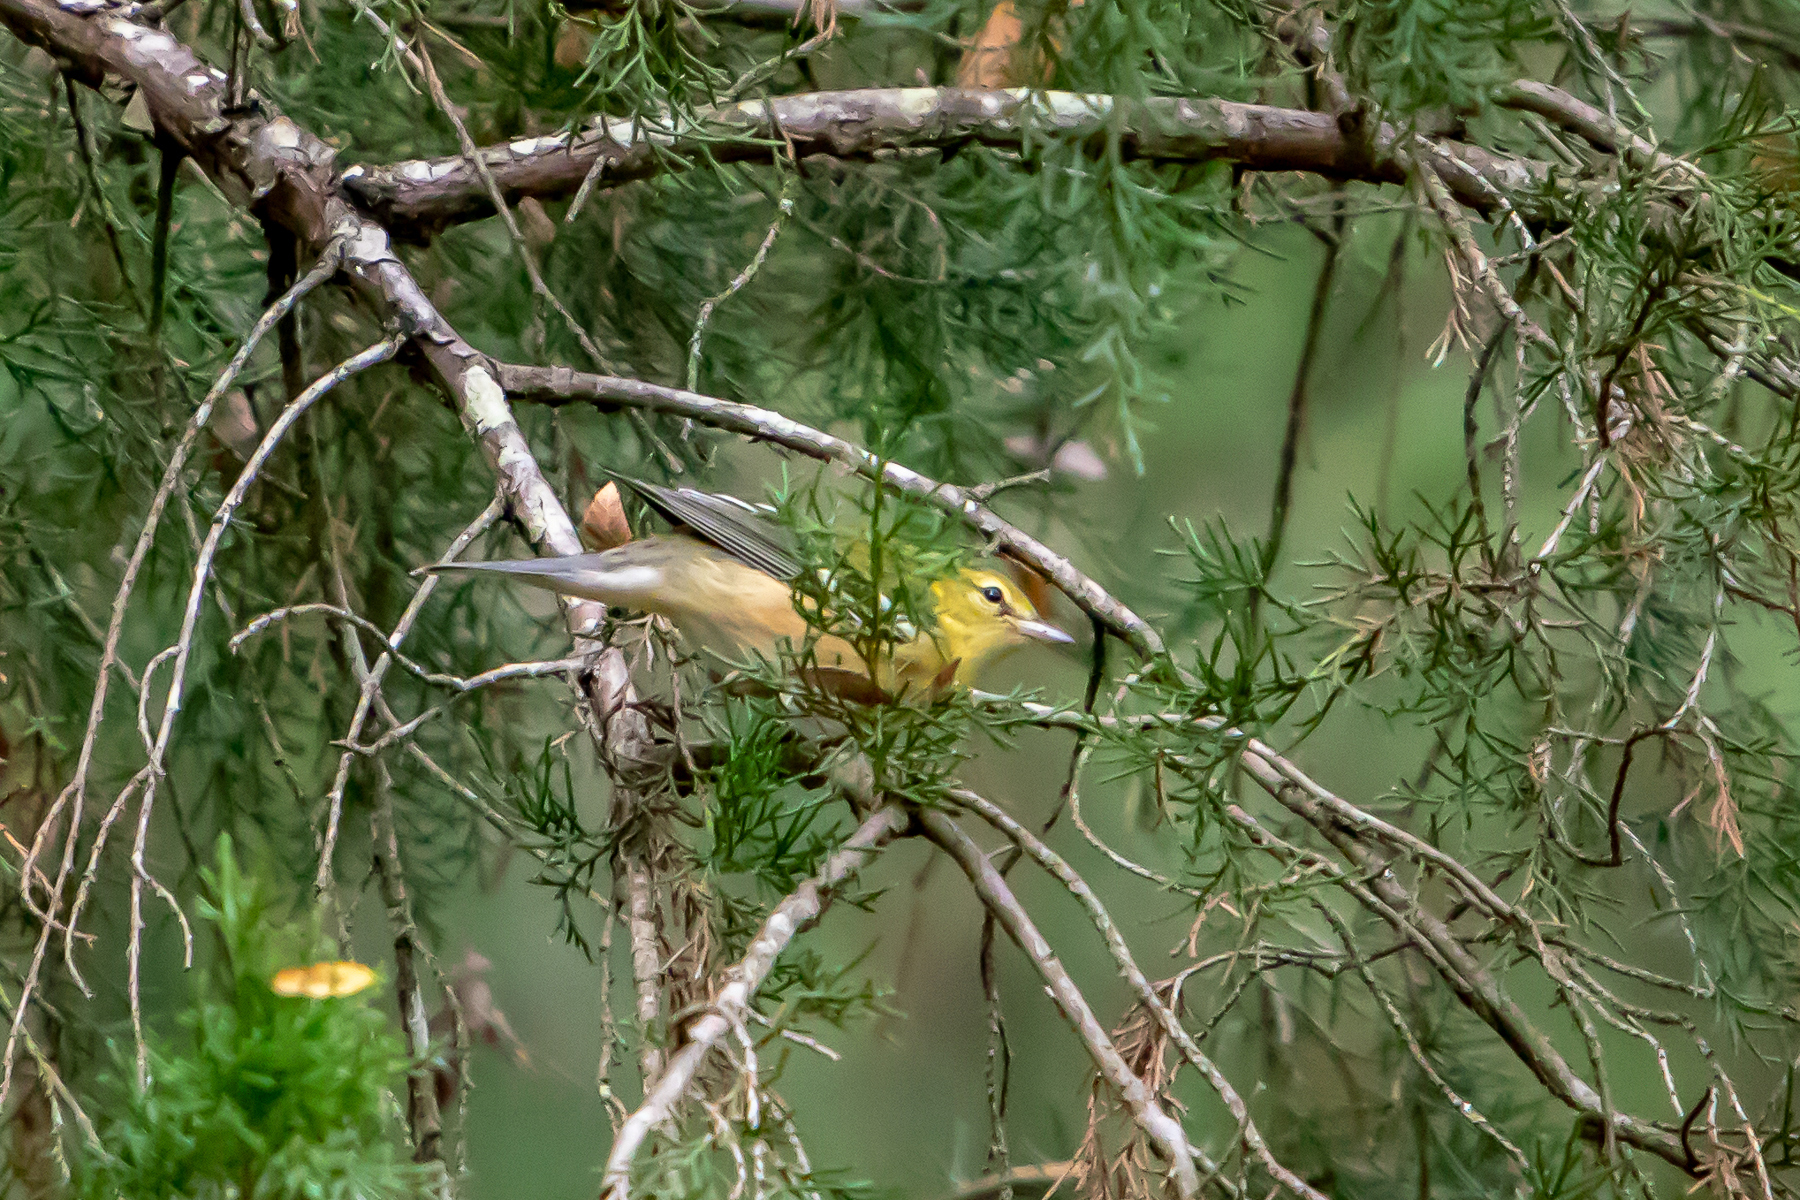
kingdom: Animalia
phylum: Chordata
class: Aves
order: Passeriformes
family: Parulidae
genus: Setophaga
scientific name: Setophaga castanea
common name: Bay-breasted warbler
